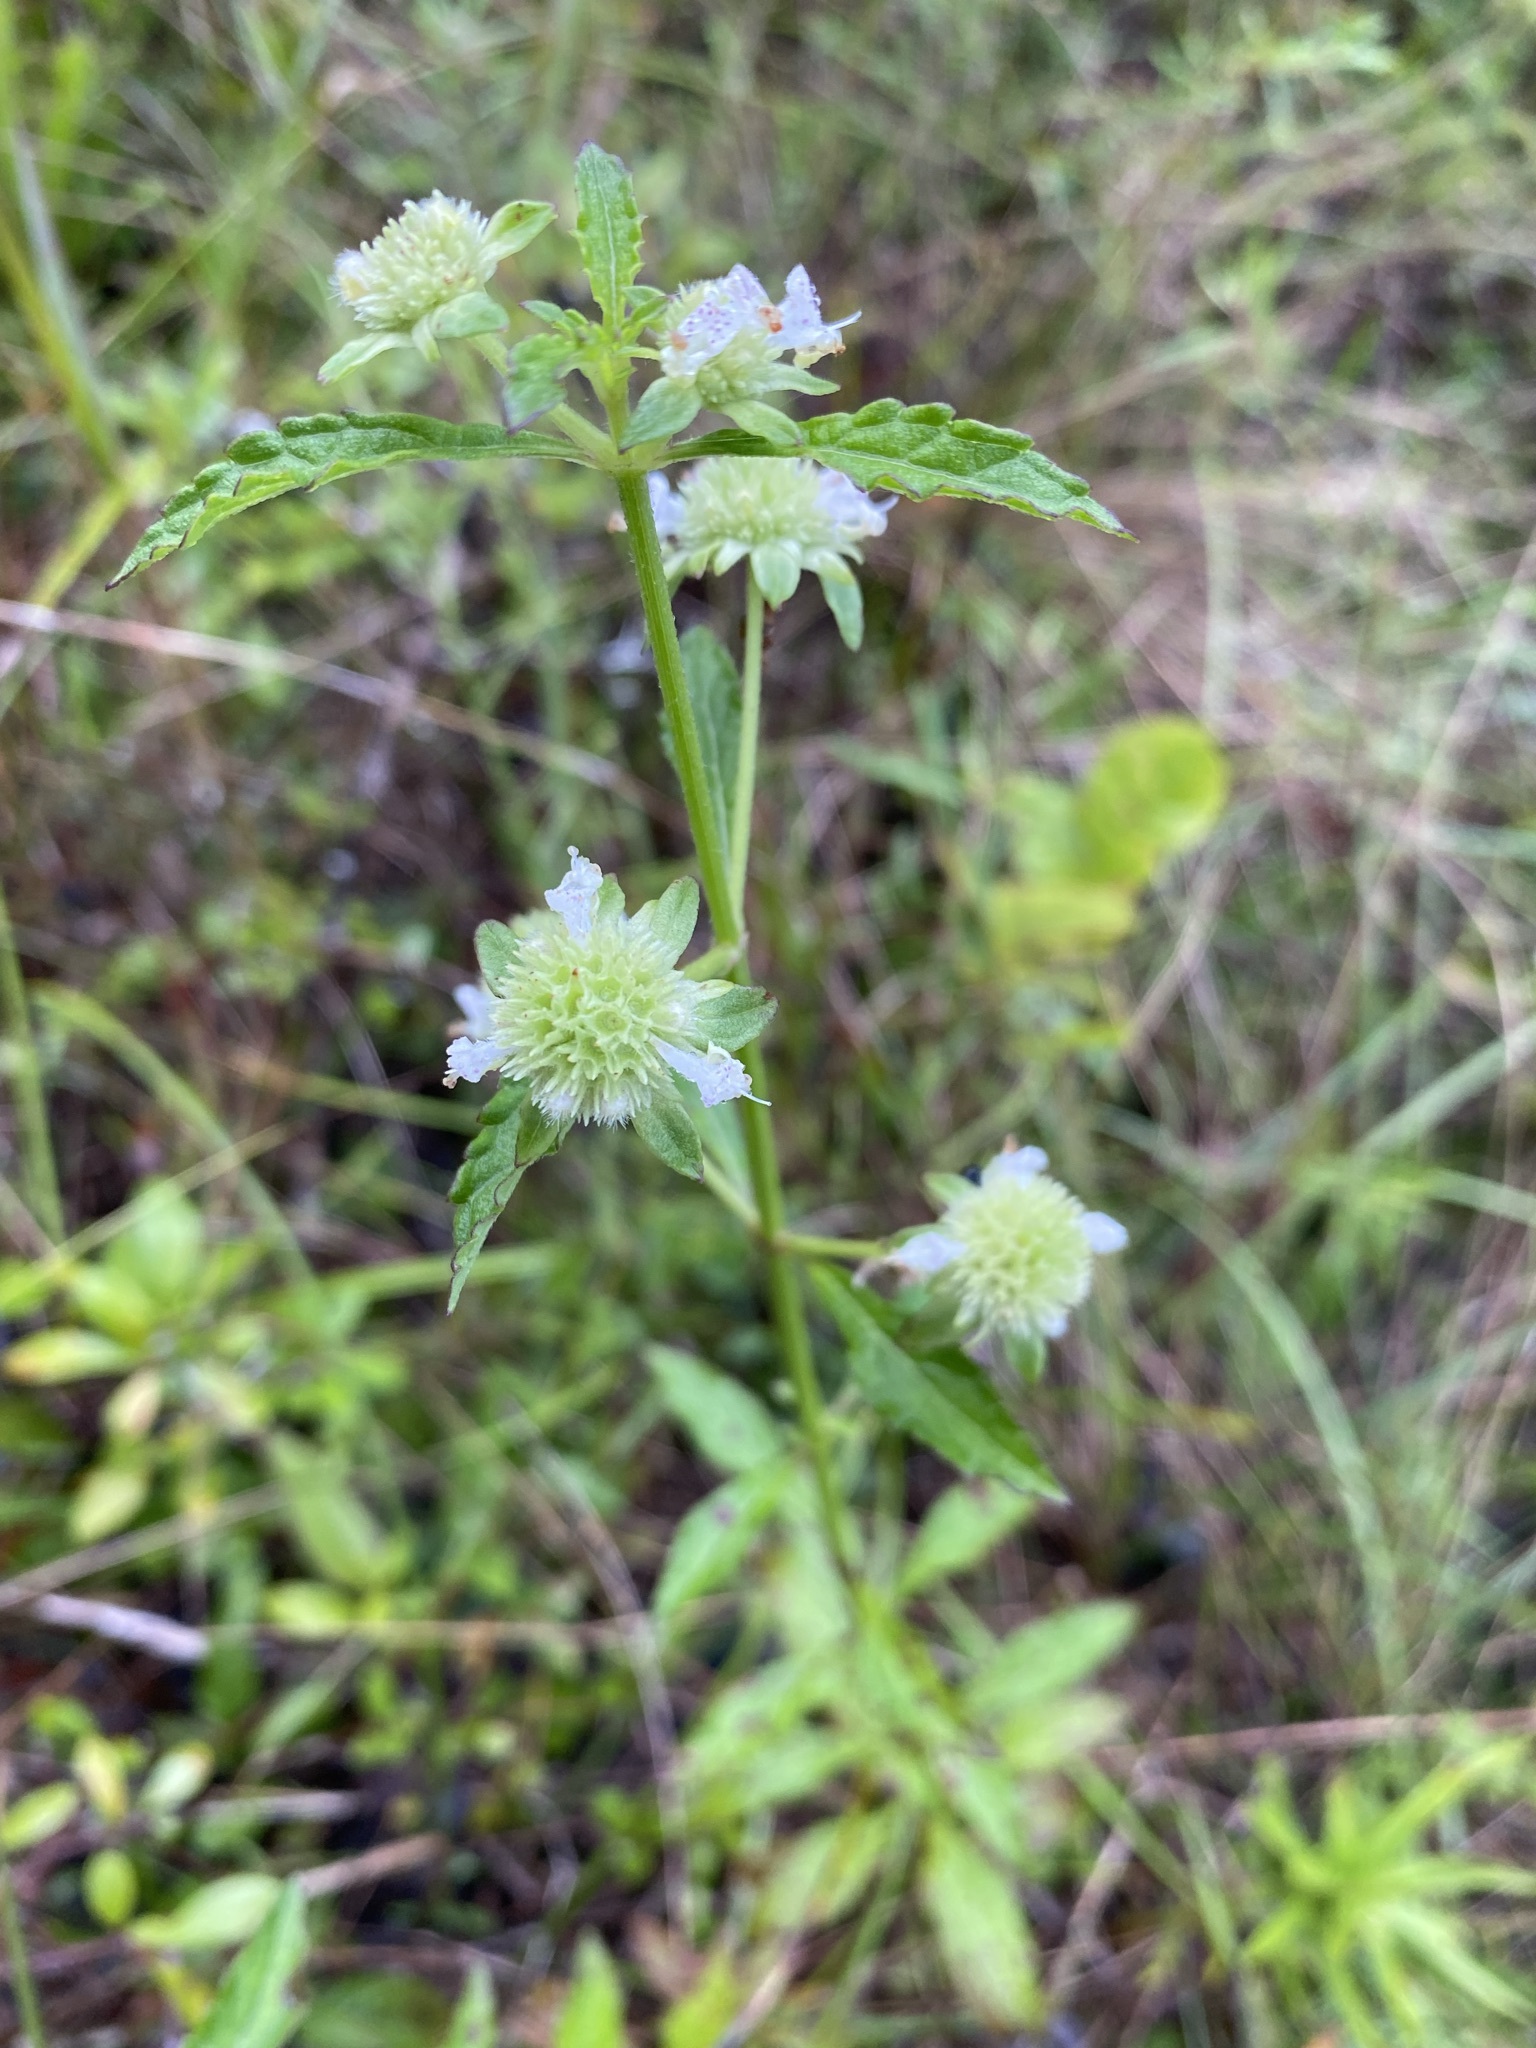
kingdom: Plantae
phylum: Tracheophyta
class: Magnoliopsida
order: Lamiales
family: Lamiaceae
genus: Hyptis
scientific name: Hyptis alata
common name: Cluster bush-mint
